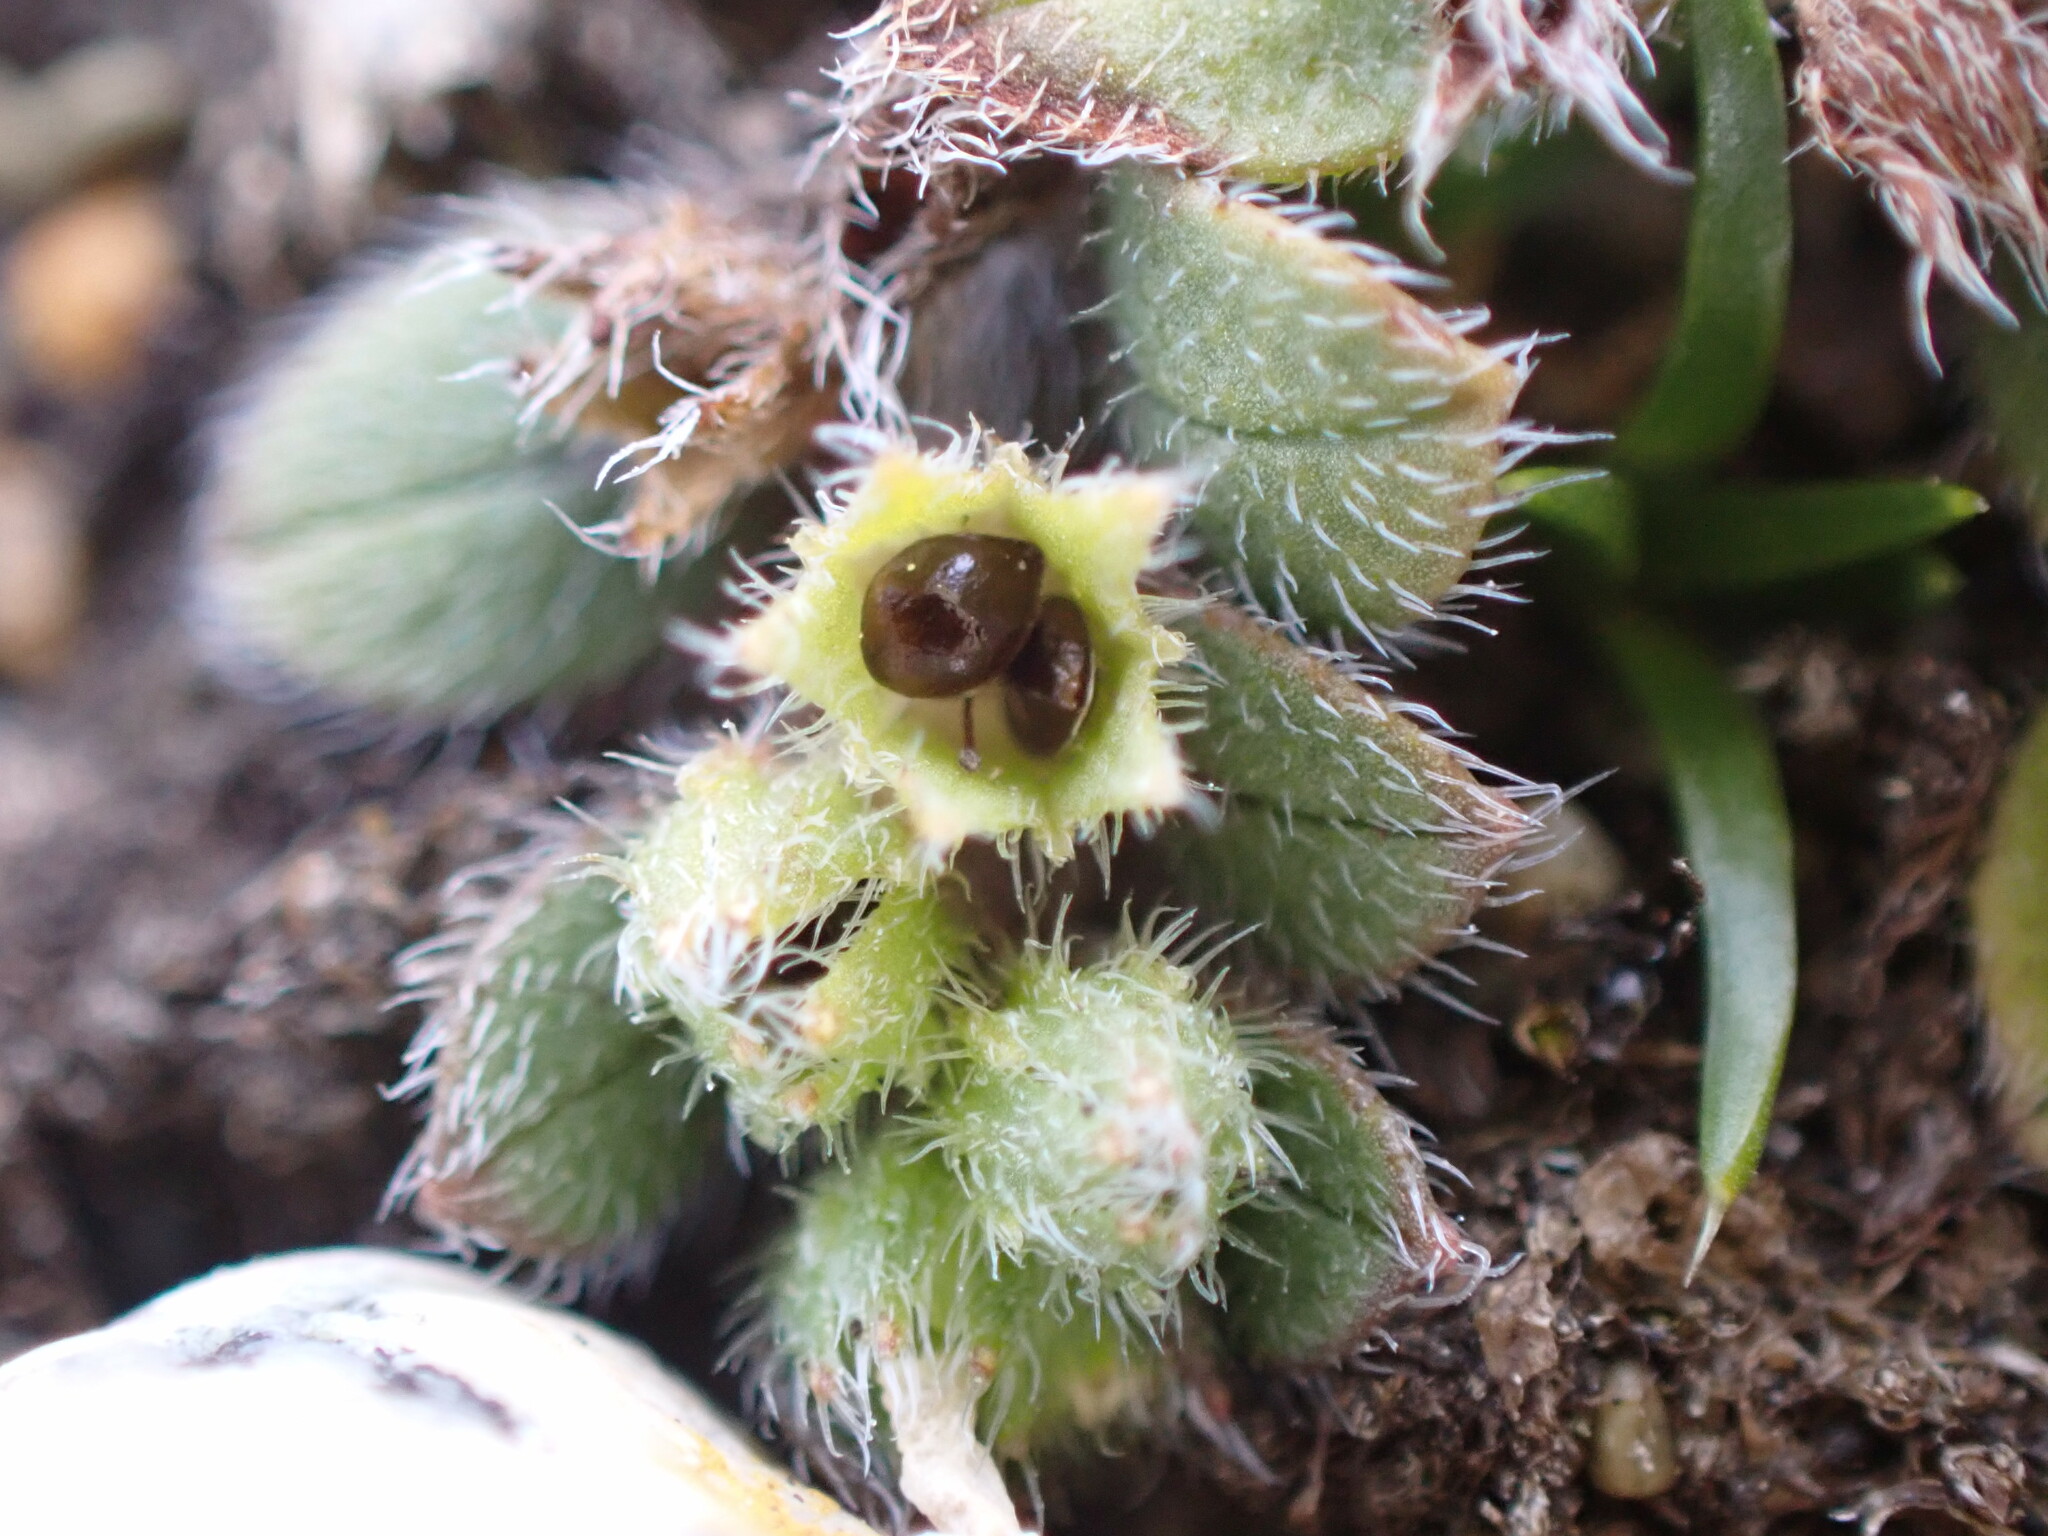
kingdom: Plantae
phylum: Tracheophyta
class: Magnoliopsida
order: Boraginales
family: Boraginaceae
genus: Myosotis
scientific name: Myosotis antarctica
